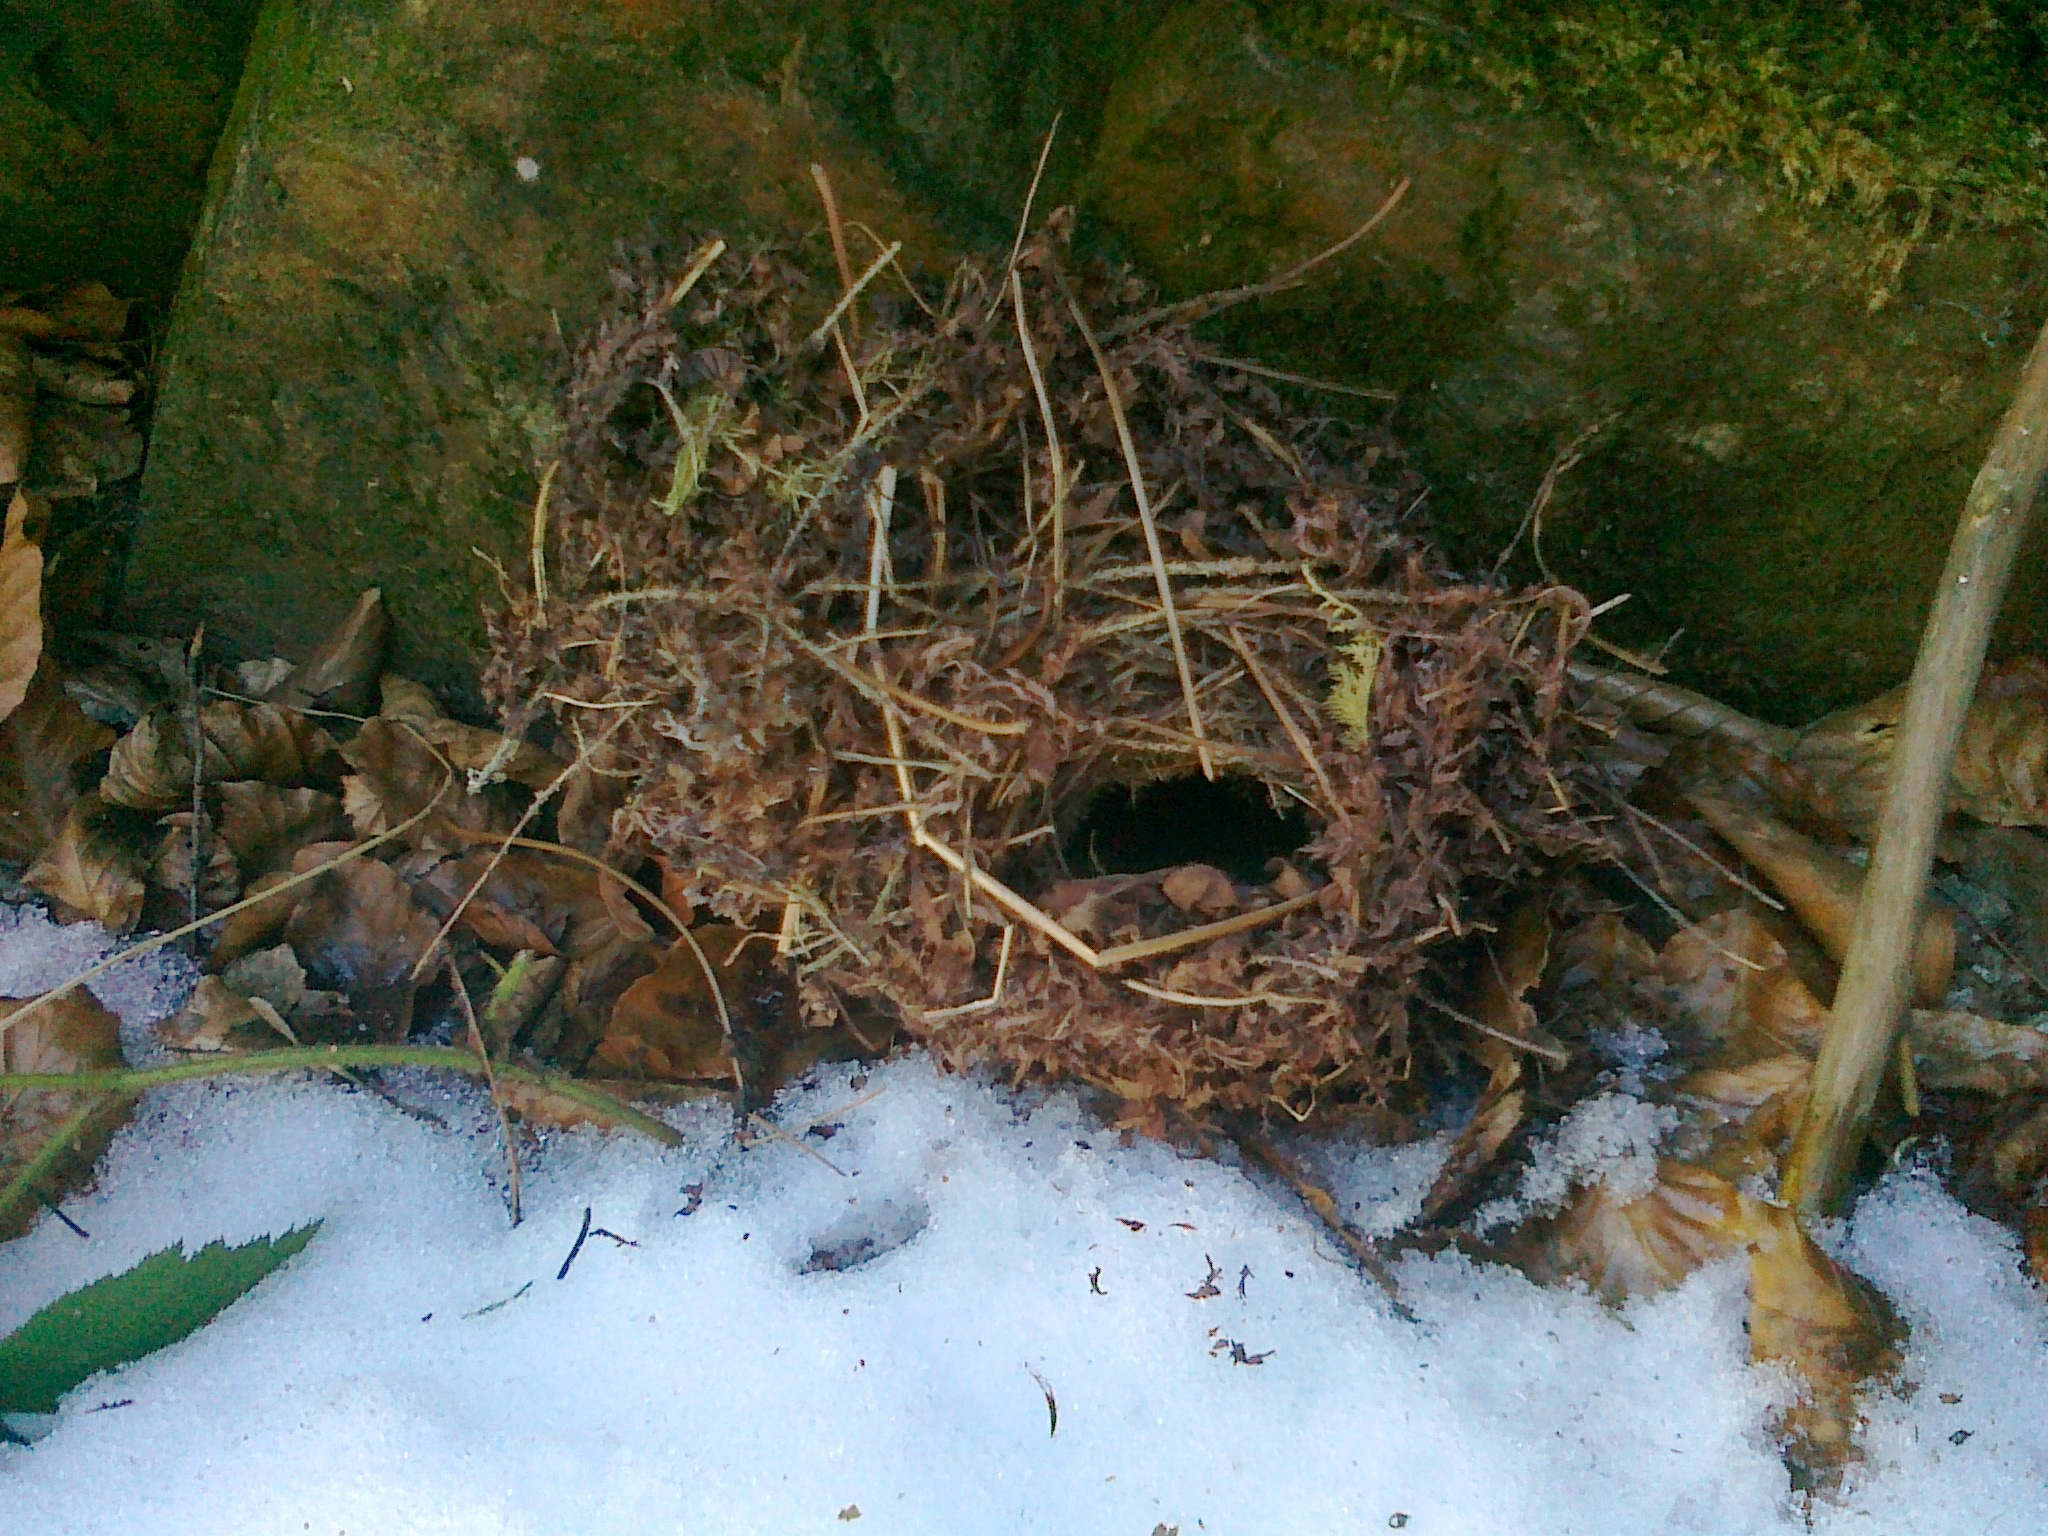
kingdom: Animalia
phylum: Chordata
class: Aves
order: Passeriformes
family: Troglodytidae
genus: Troglodytes
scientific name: Troglodytes troglodytes
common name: Eurasian wren
